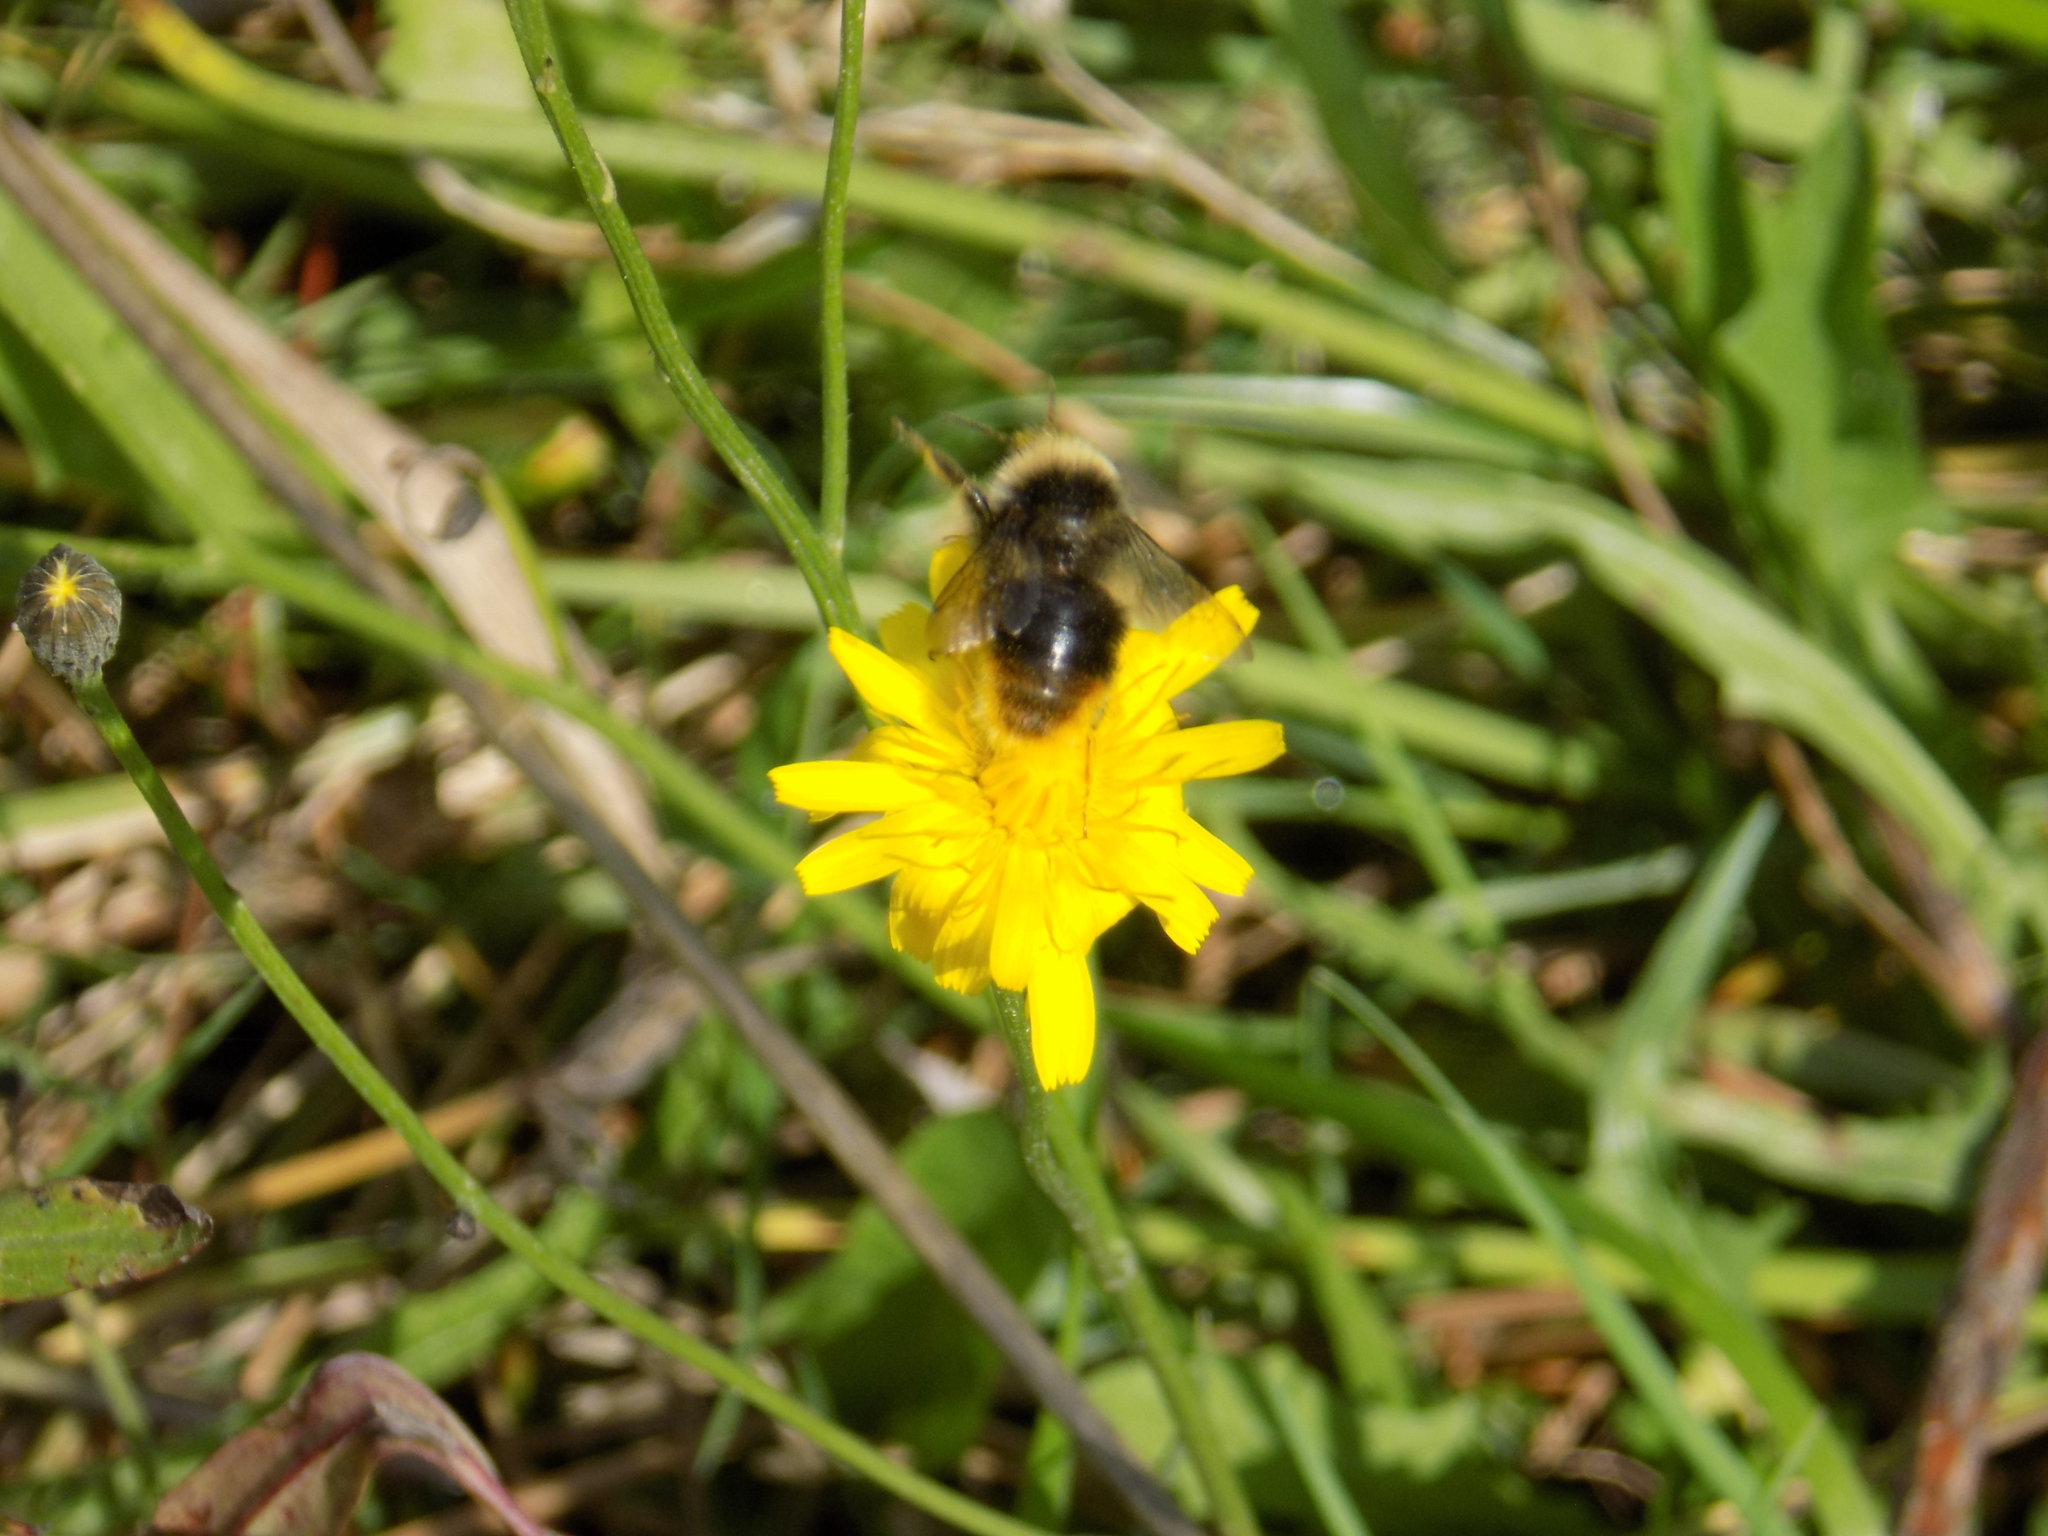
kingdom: Animalia
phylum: Arthropoda
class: Insecta
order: Hymenoptera
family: Apidae
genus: Bombus
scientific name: Bombus quadricolor
